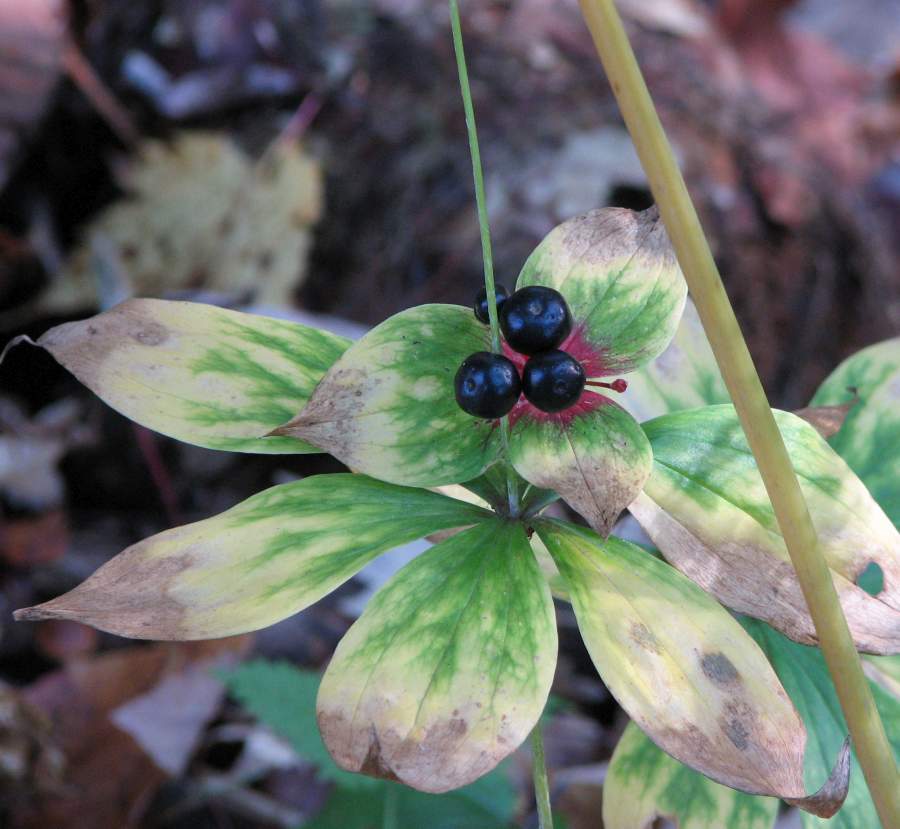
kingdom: Plantae
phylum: Tracheophyta
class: Liliopsida
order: Liliales
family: Liliaceae
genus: Medeola
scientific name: Medeola virginiana
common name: Indian cucumber-root
